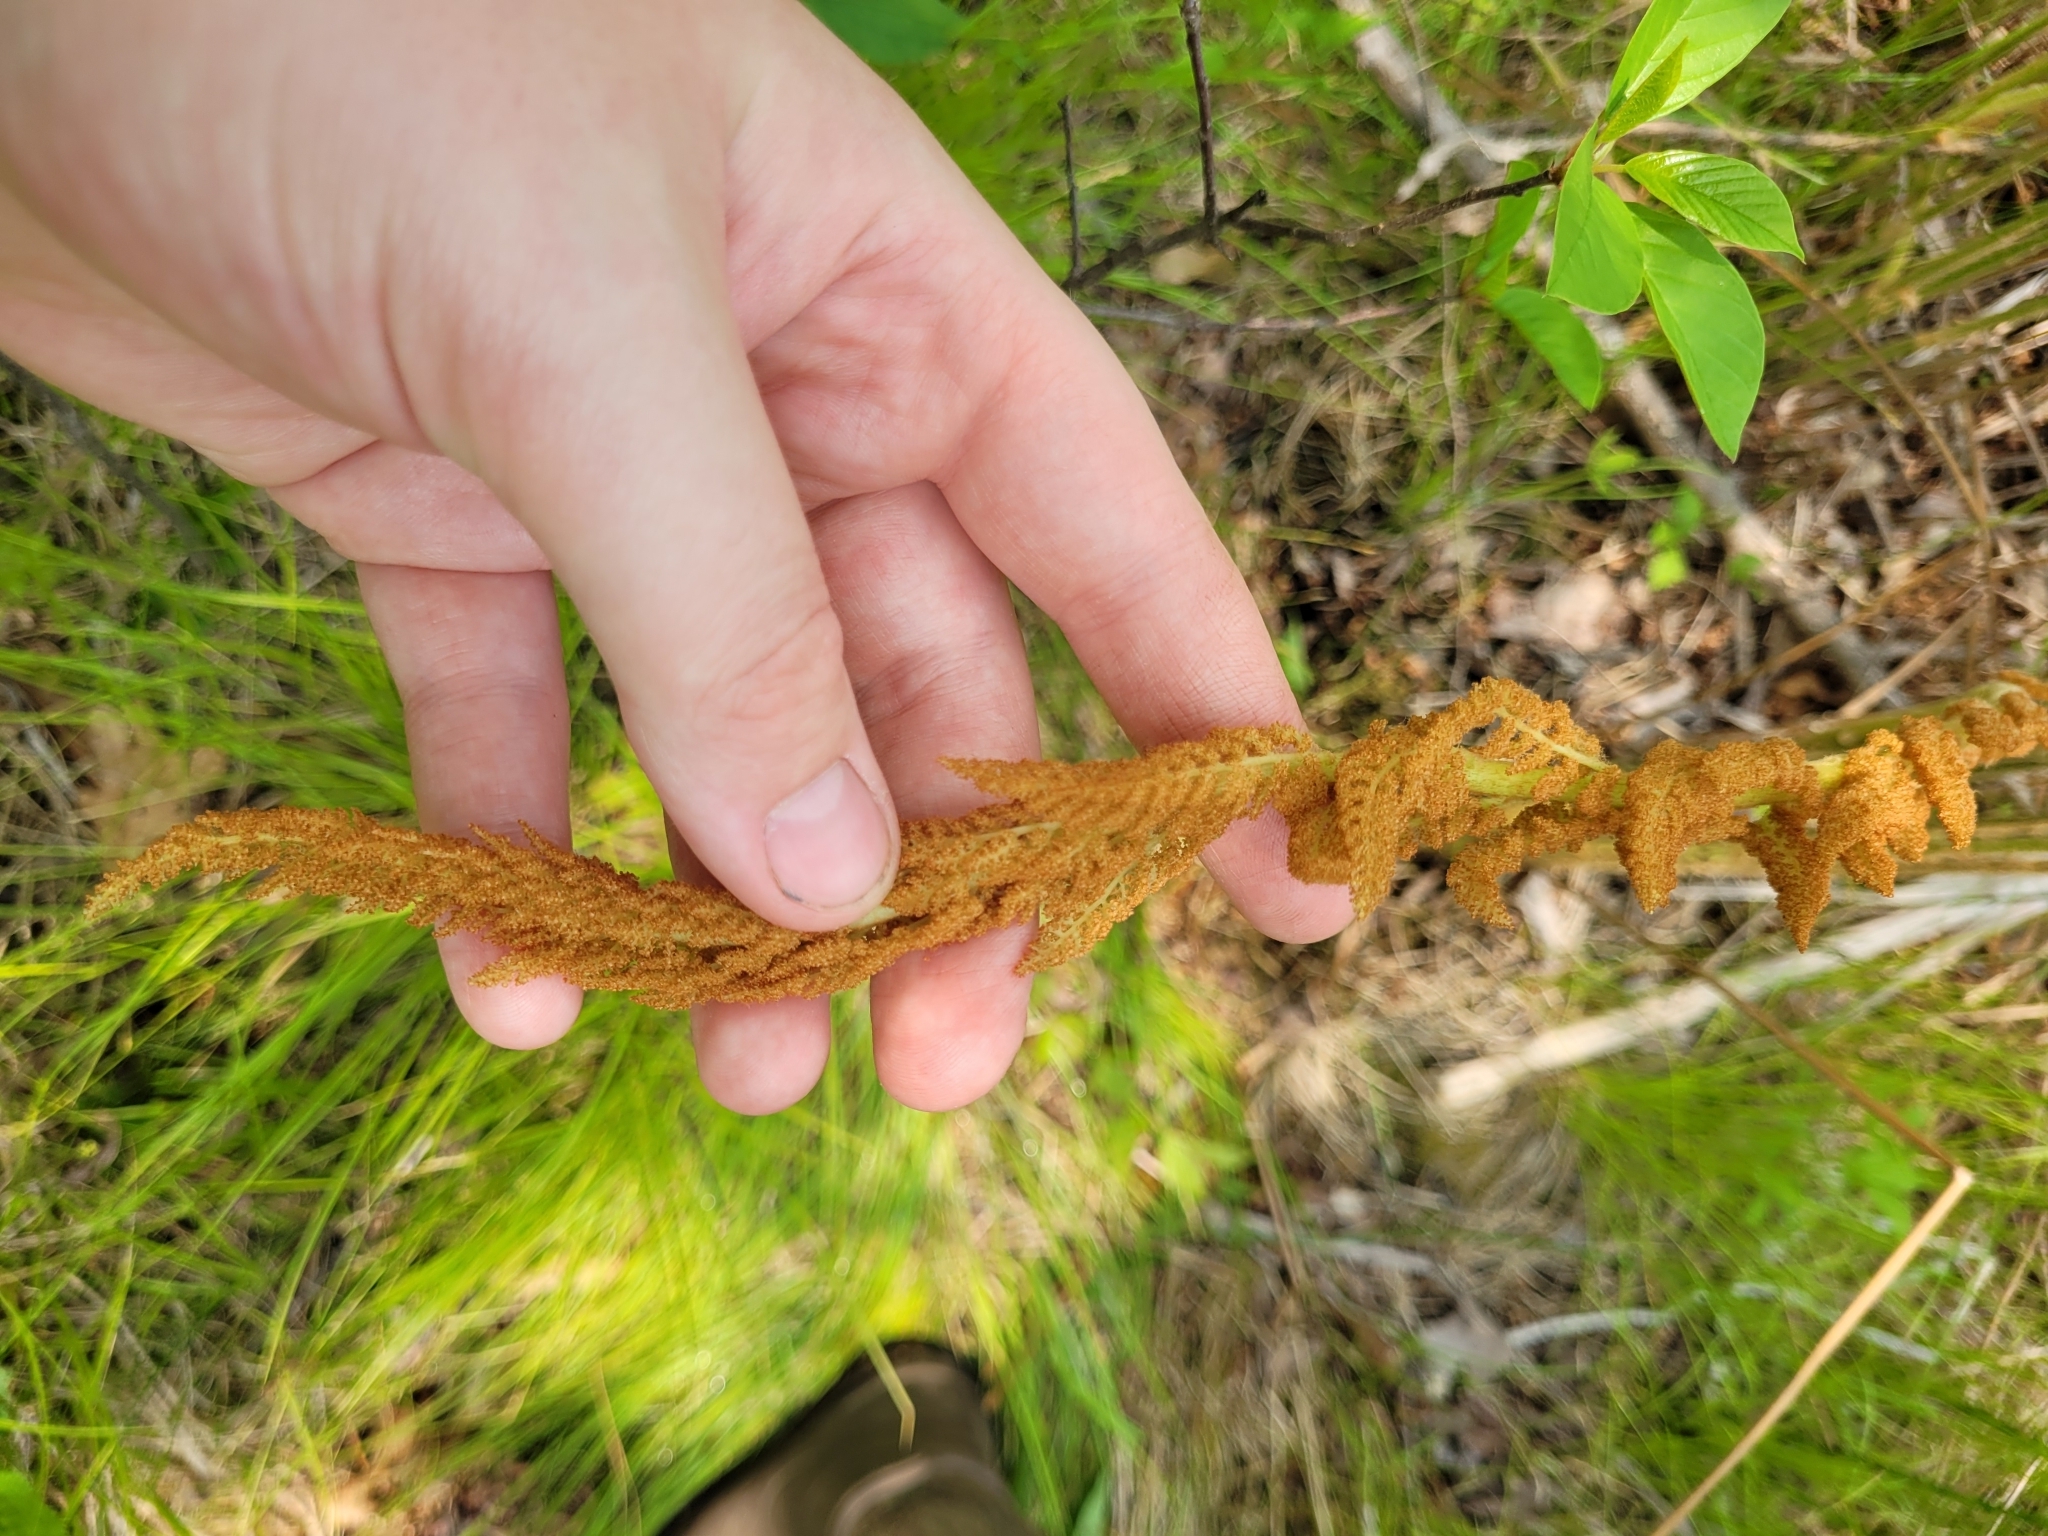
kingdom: Plantae
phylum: Tracheophyta
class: Polypodiopsida
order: Osmundales
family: Osmundaceae
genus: Osmundastrum
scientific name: Osmundastrum cinnamomeum
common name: Cinnamon fern
